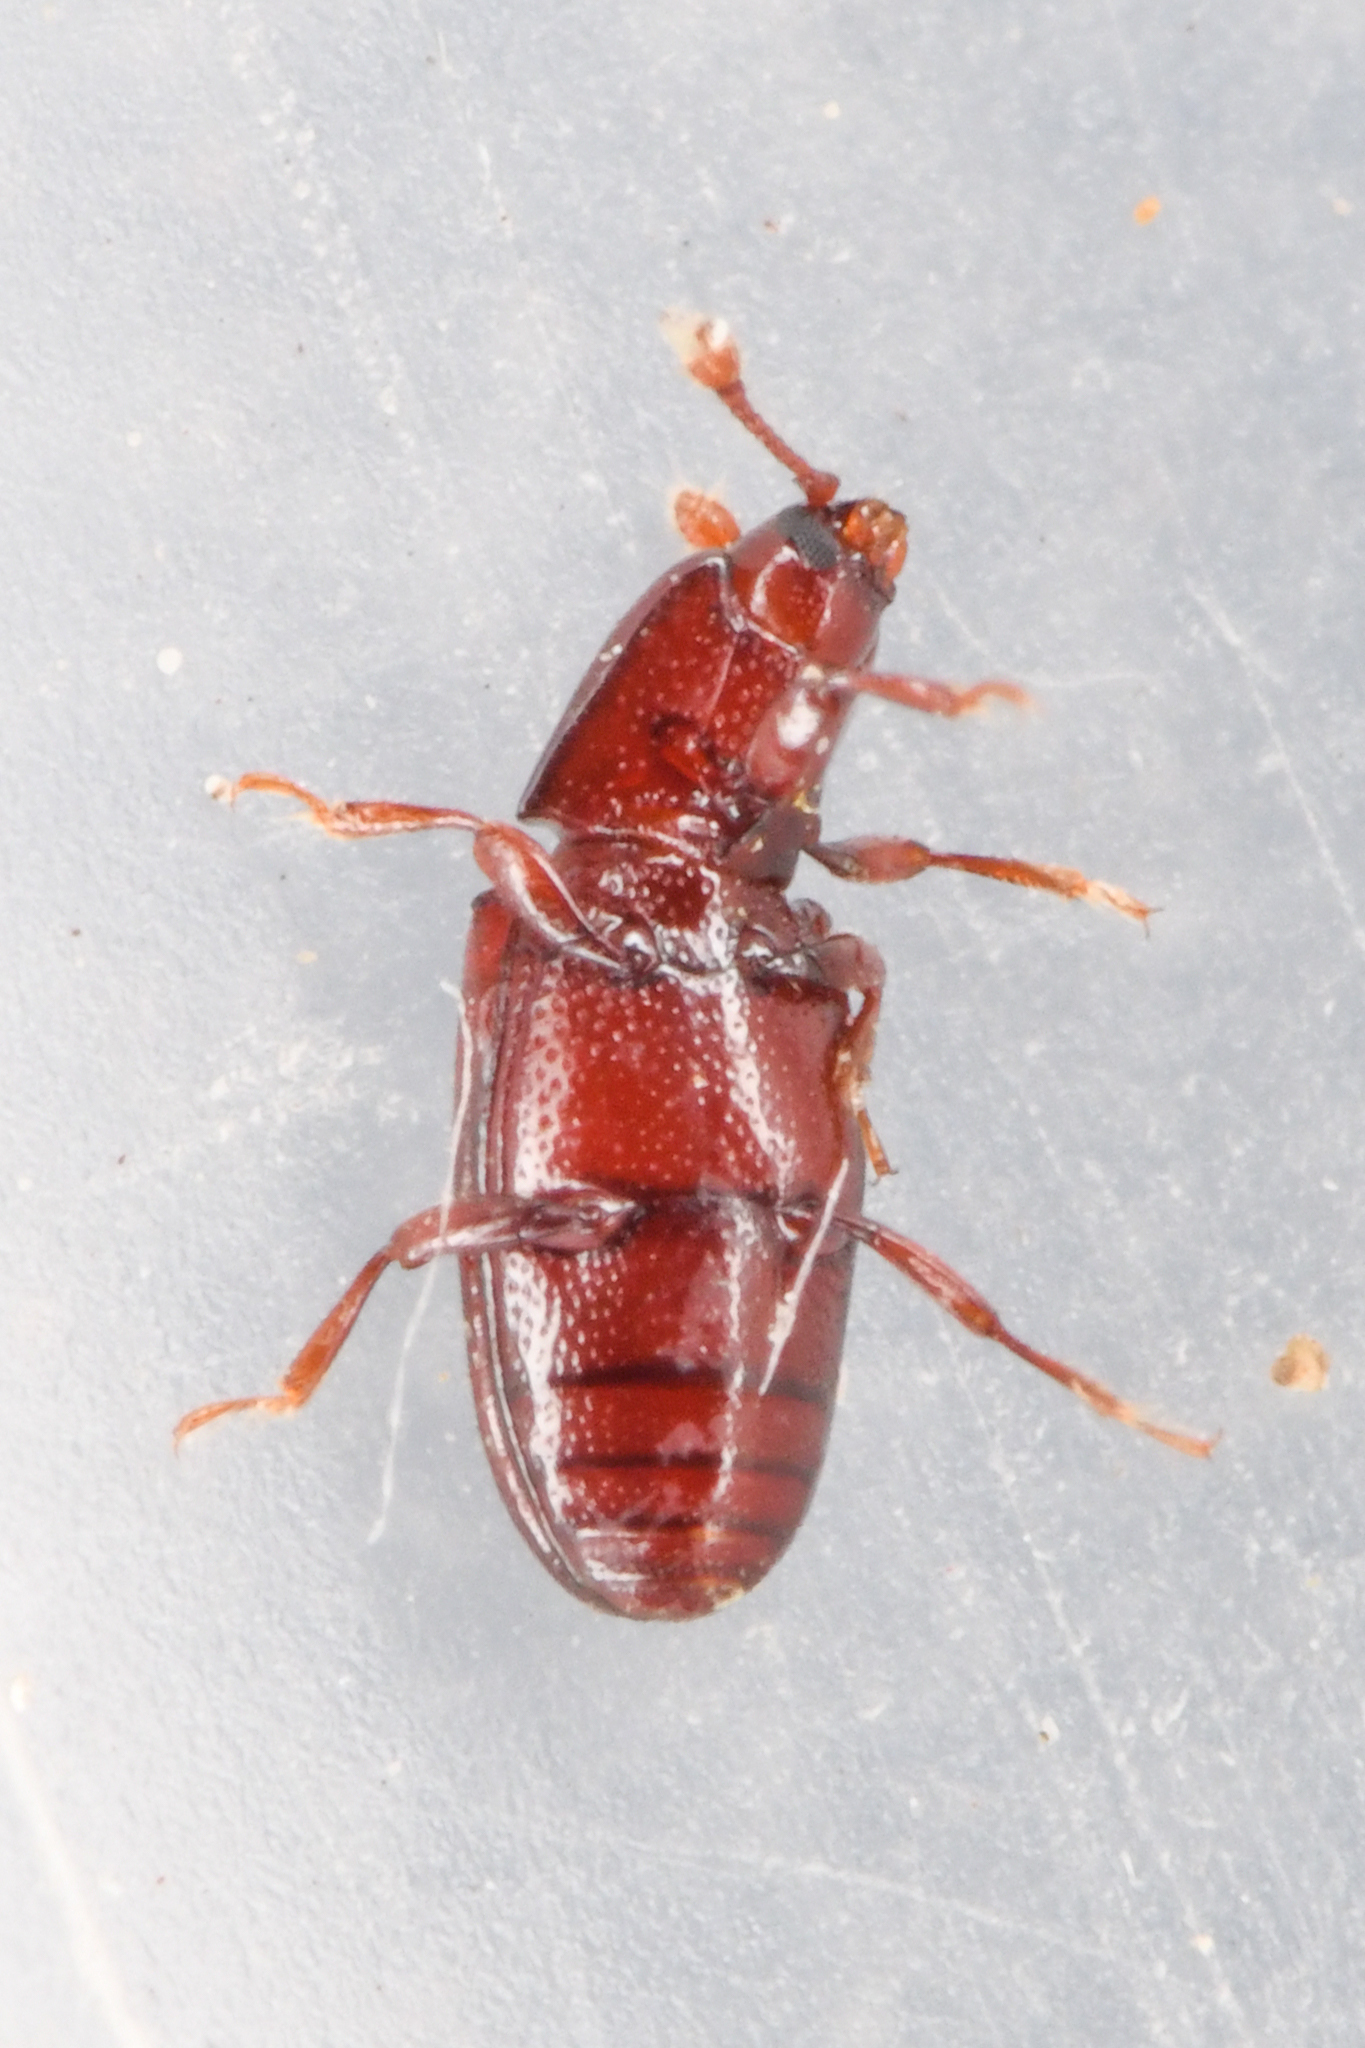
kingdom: Animalia
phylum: Arthropoda
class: Insecta
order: Coleoptera
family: Cerylonidae
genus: Cerylon
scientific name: Cerylon unicolor
